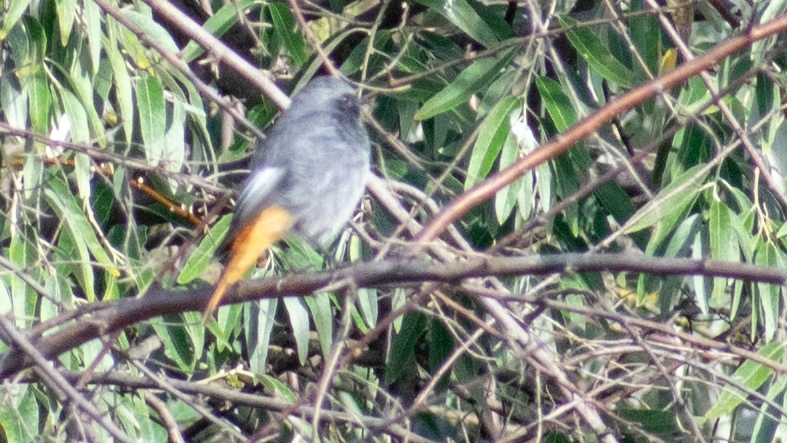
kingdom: Animalia
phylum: Chordata
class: Aves
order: Passeriformes
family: Muscicapidae
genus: Phoenicurus
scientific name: Phoenicurus ochruros
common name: Black redstart
